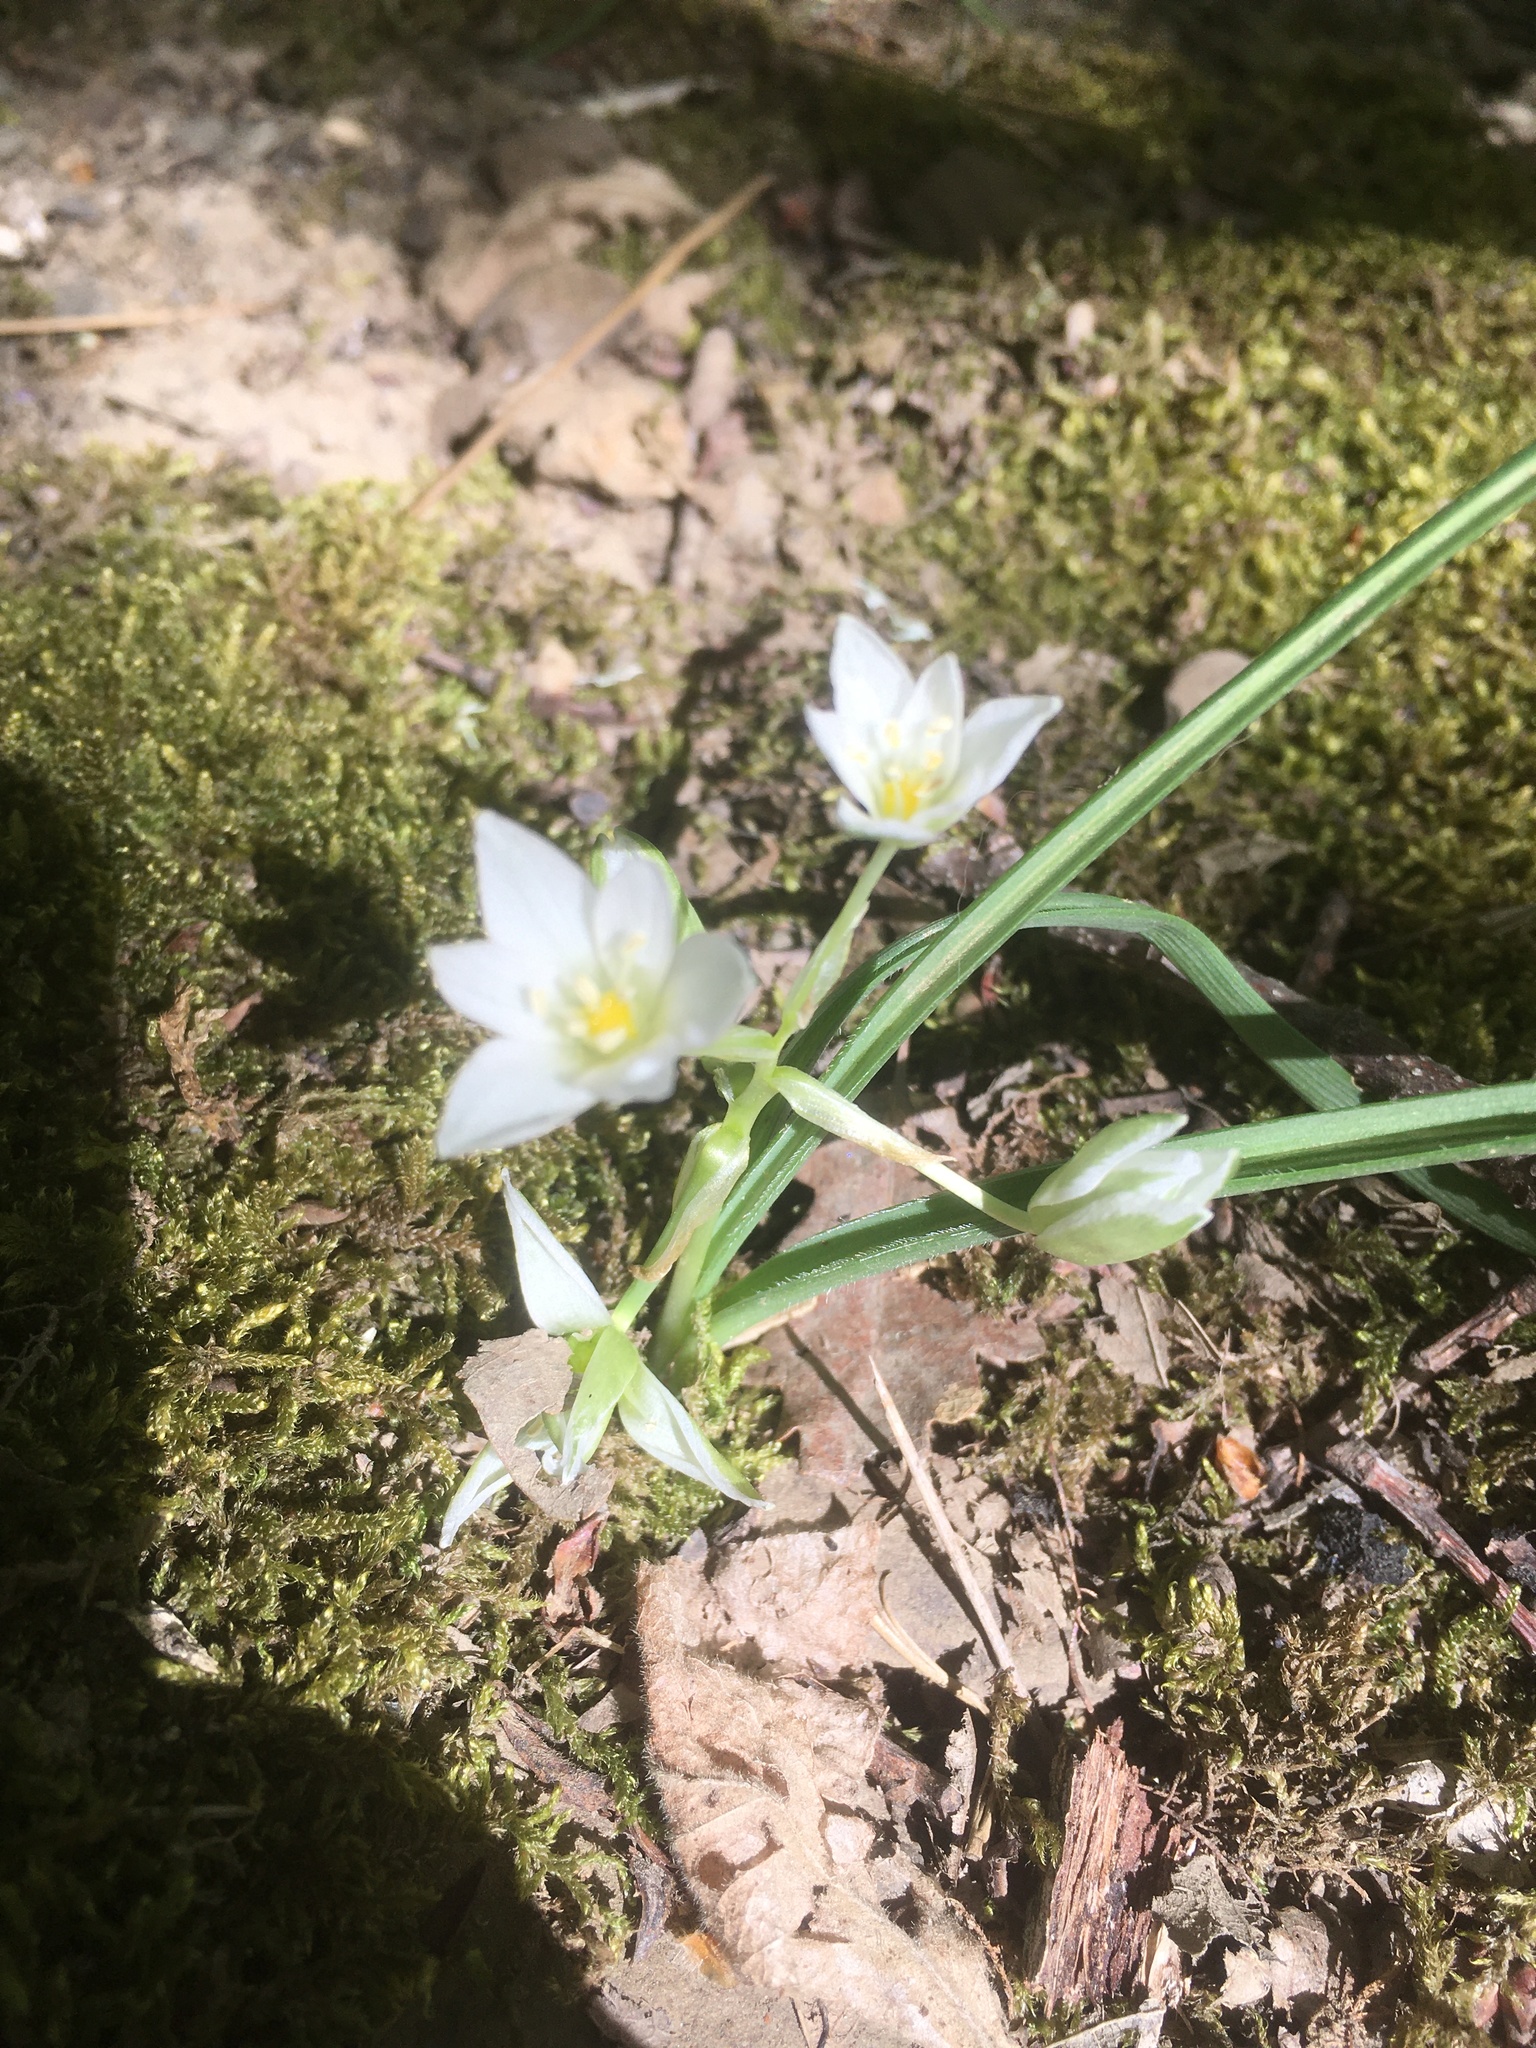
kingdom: Plantae
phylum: Tracheophyta
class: Liliopsida
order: Asparagales
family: Asparagaceae
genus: Ornithogalum
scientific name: Ornithogalum fimbriatum
